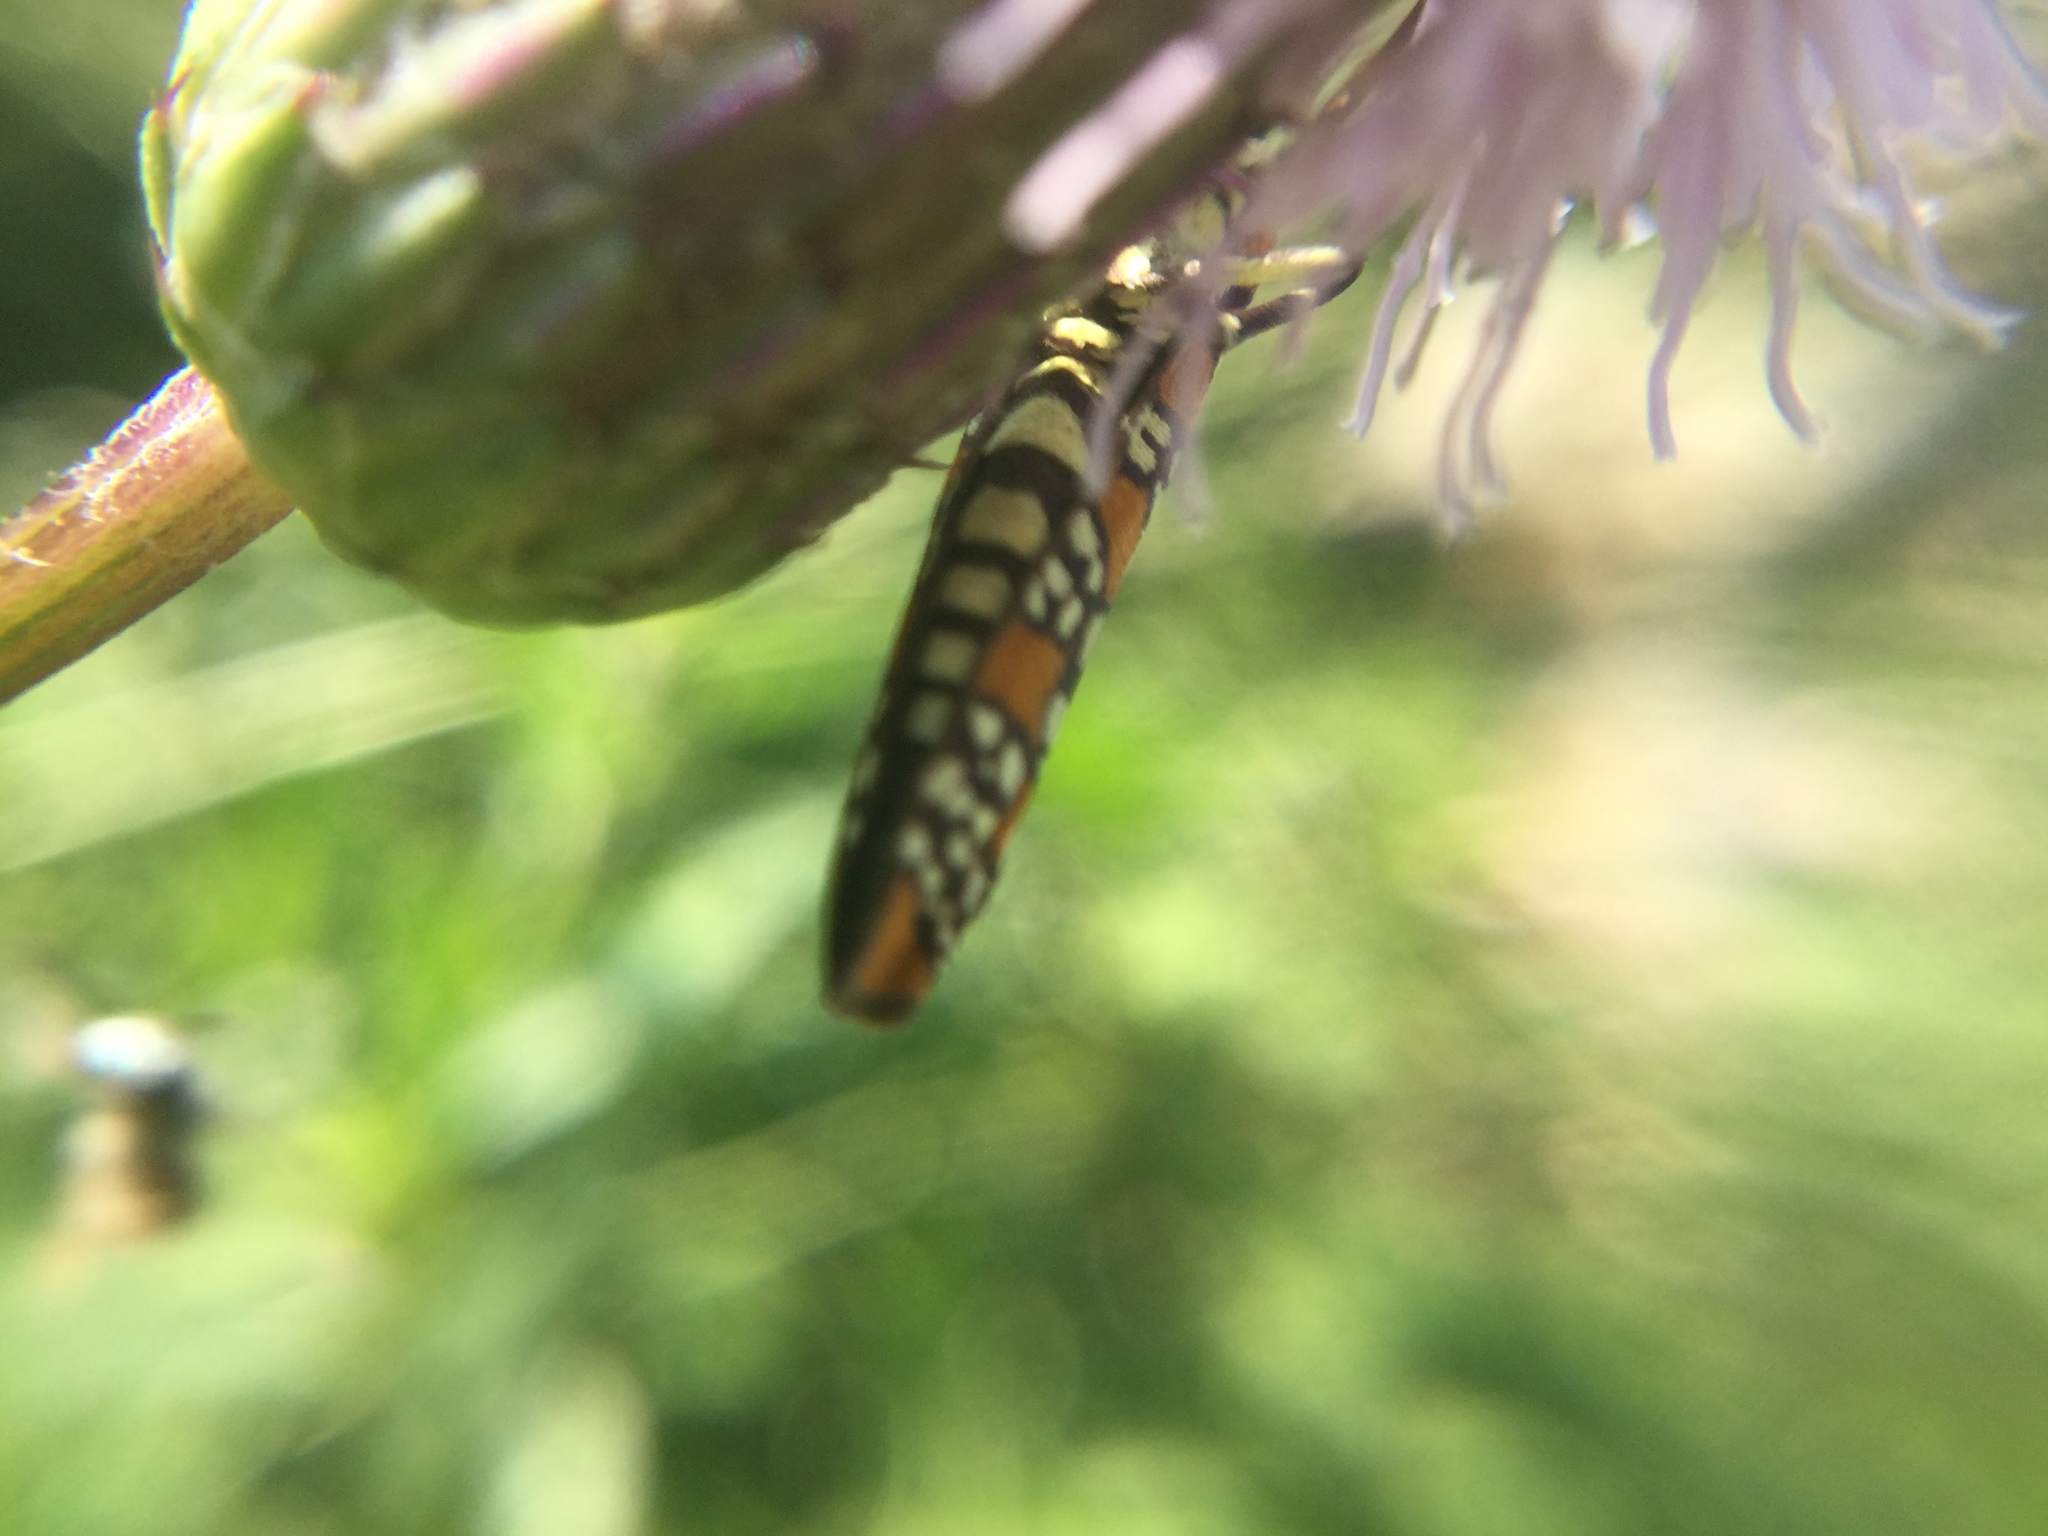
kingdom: Animalia
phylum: Arthropoda
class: Insecta
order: Lepidoptera
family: Attevidae
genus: Atteva
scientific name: Atteva punctella
